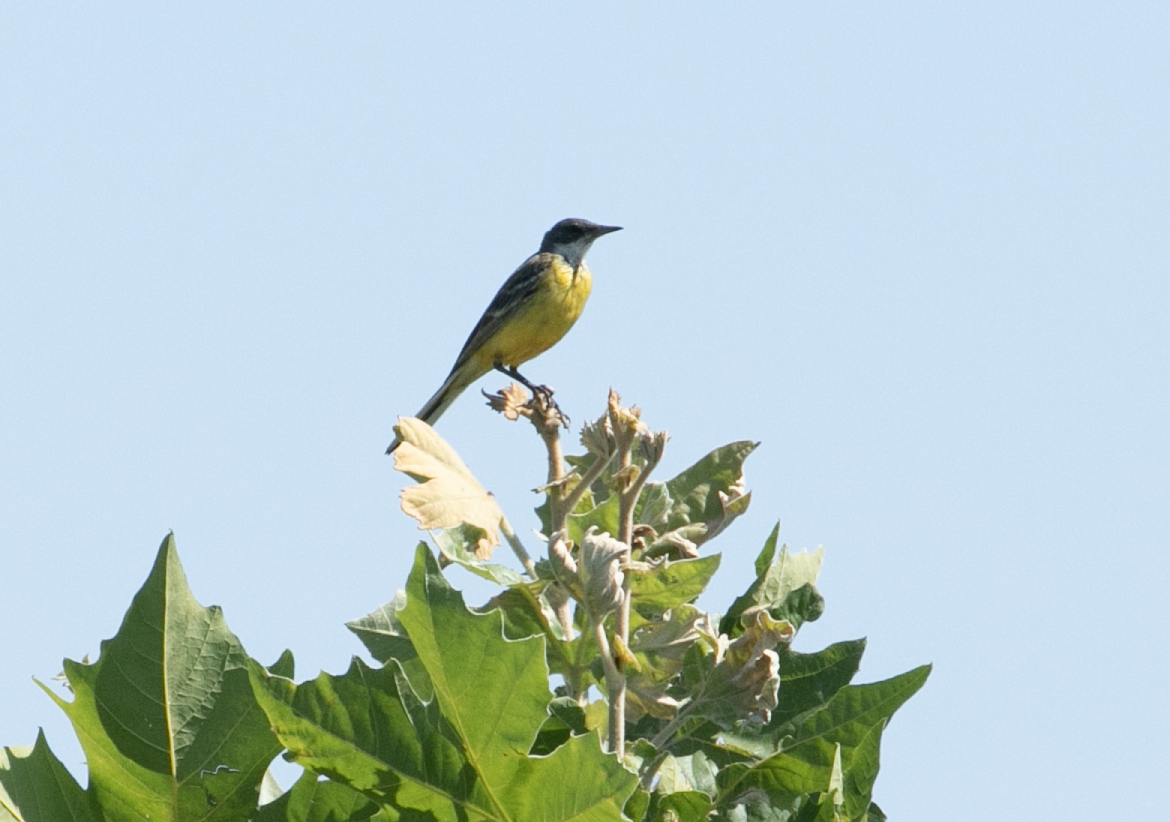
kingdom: Animalia
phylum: Chordata
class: Aves
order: Passeriformes
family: Motacillidae
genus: Motacilla
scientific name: Motacilla flava
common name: Western yellow wagtail
